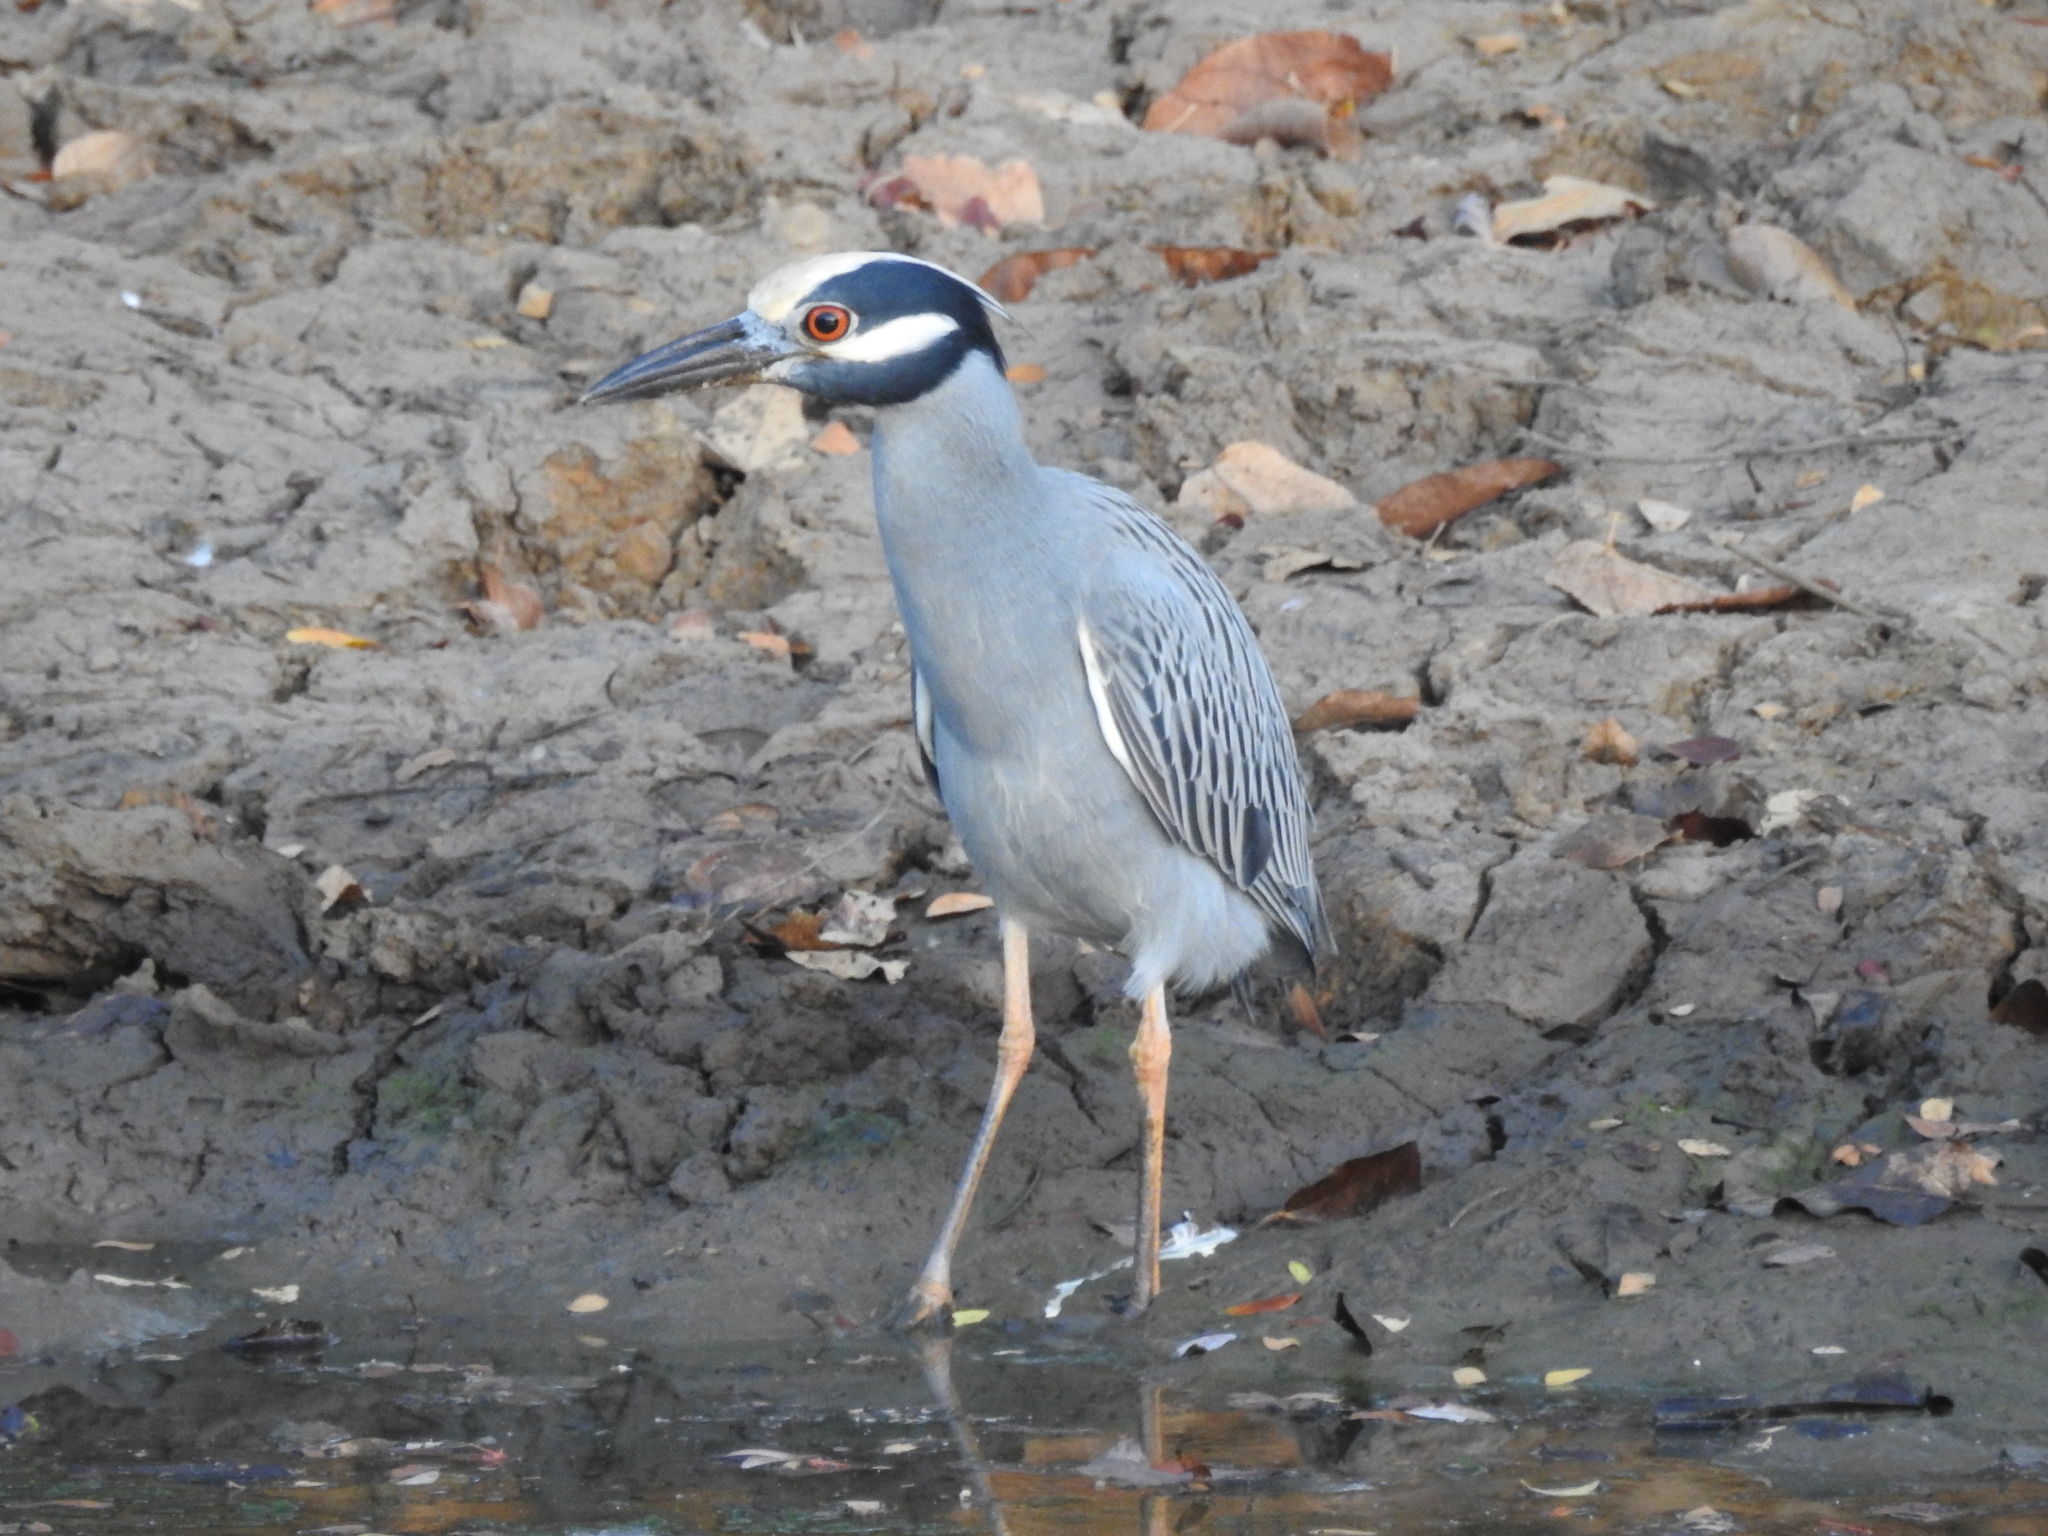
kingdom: Animalia
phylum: Chordata
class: Aves
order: Pelecaniformes
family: Ardeidae
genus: Nyctanassa
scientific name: Nyctanassa violacea
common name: Yellow-crowned night heron
